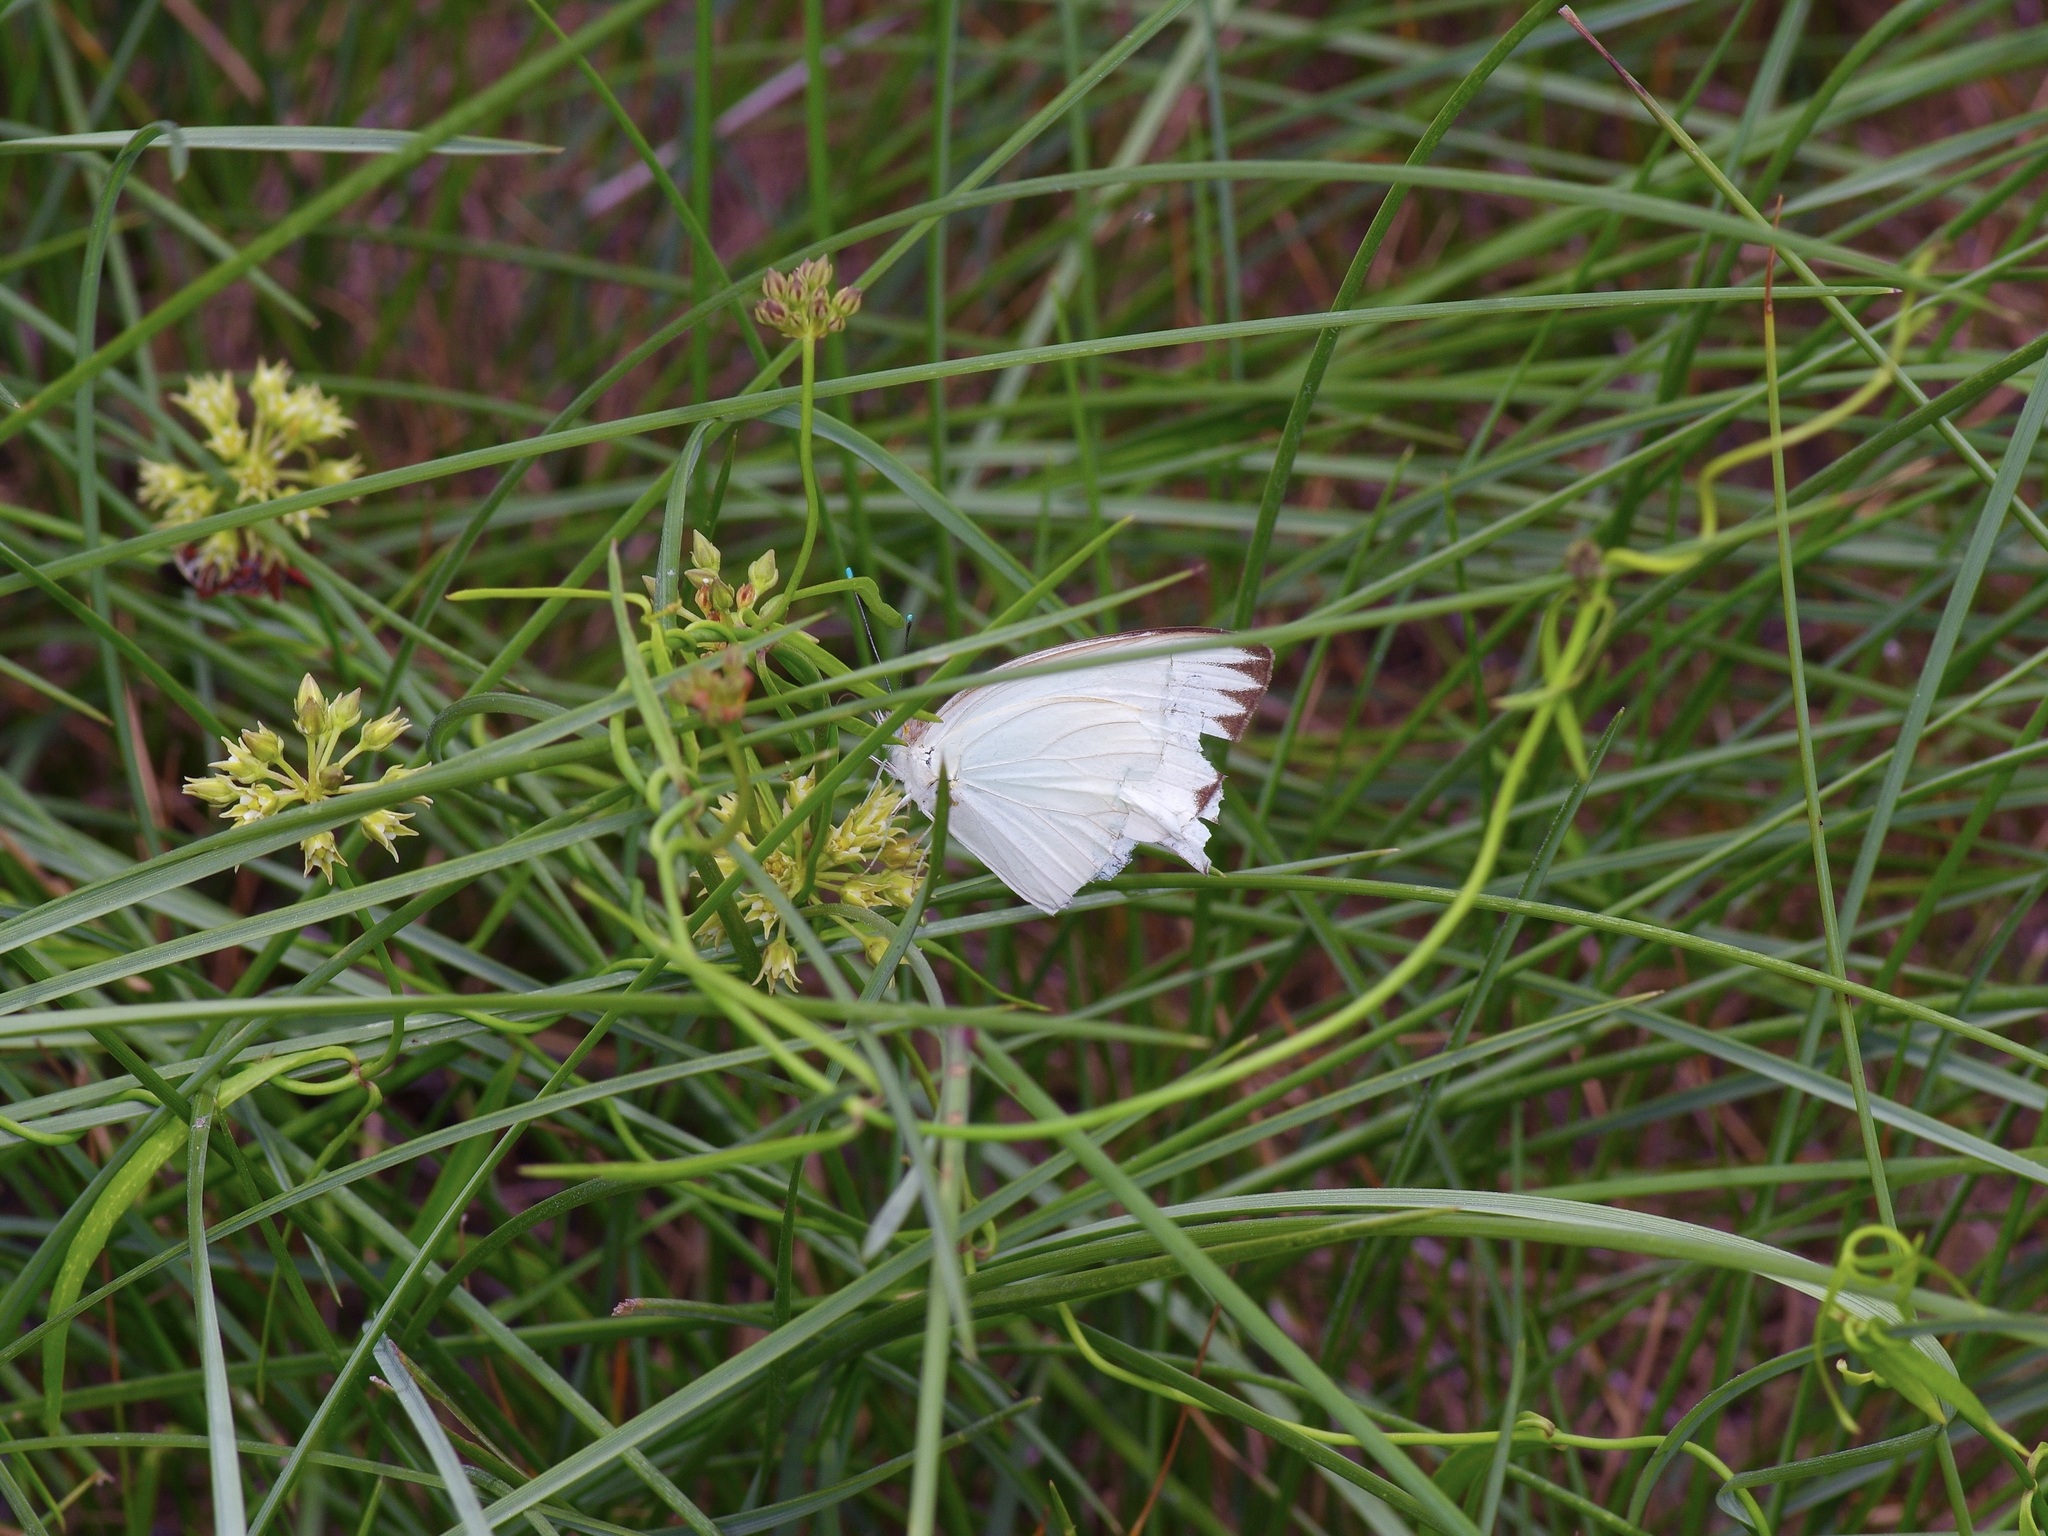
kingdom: Animalia
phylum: Arthropoda
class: Insecta
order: Lepidoptera
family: Pieridae
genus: Ascia
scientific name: Ascia monuste
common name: Great southern white
